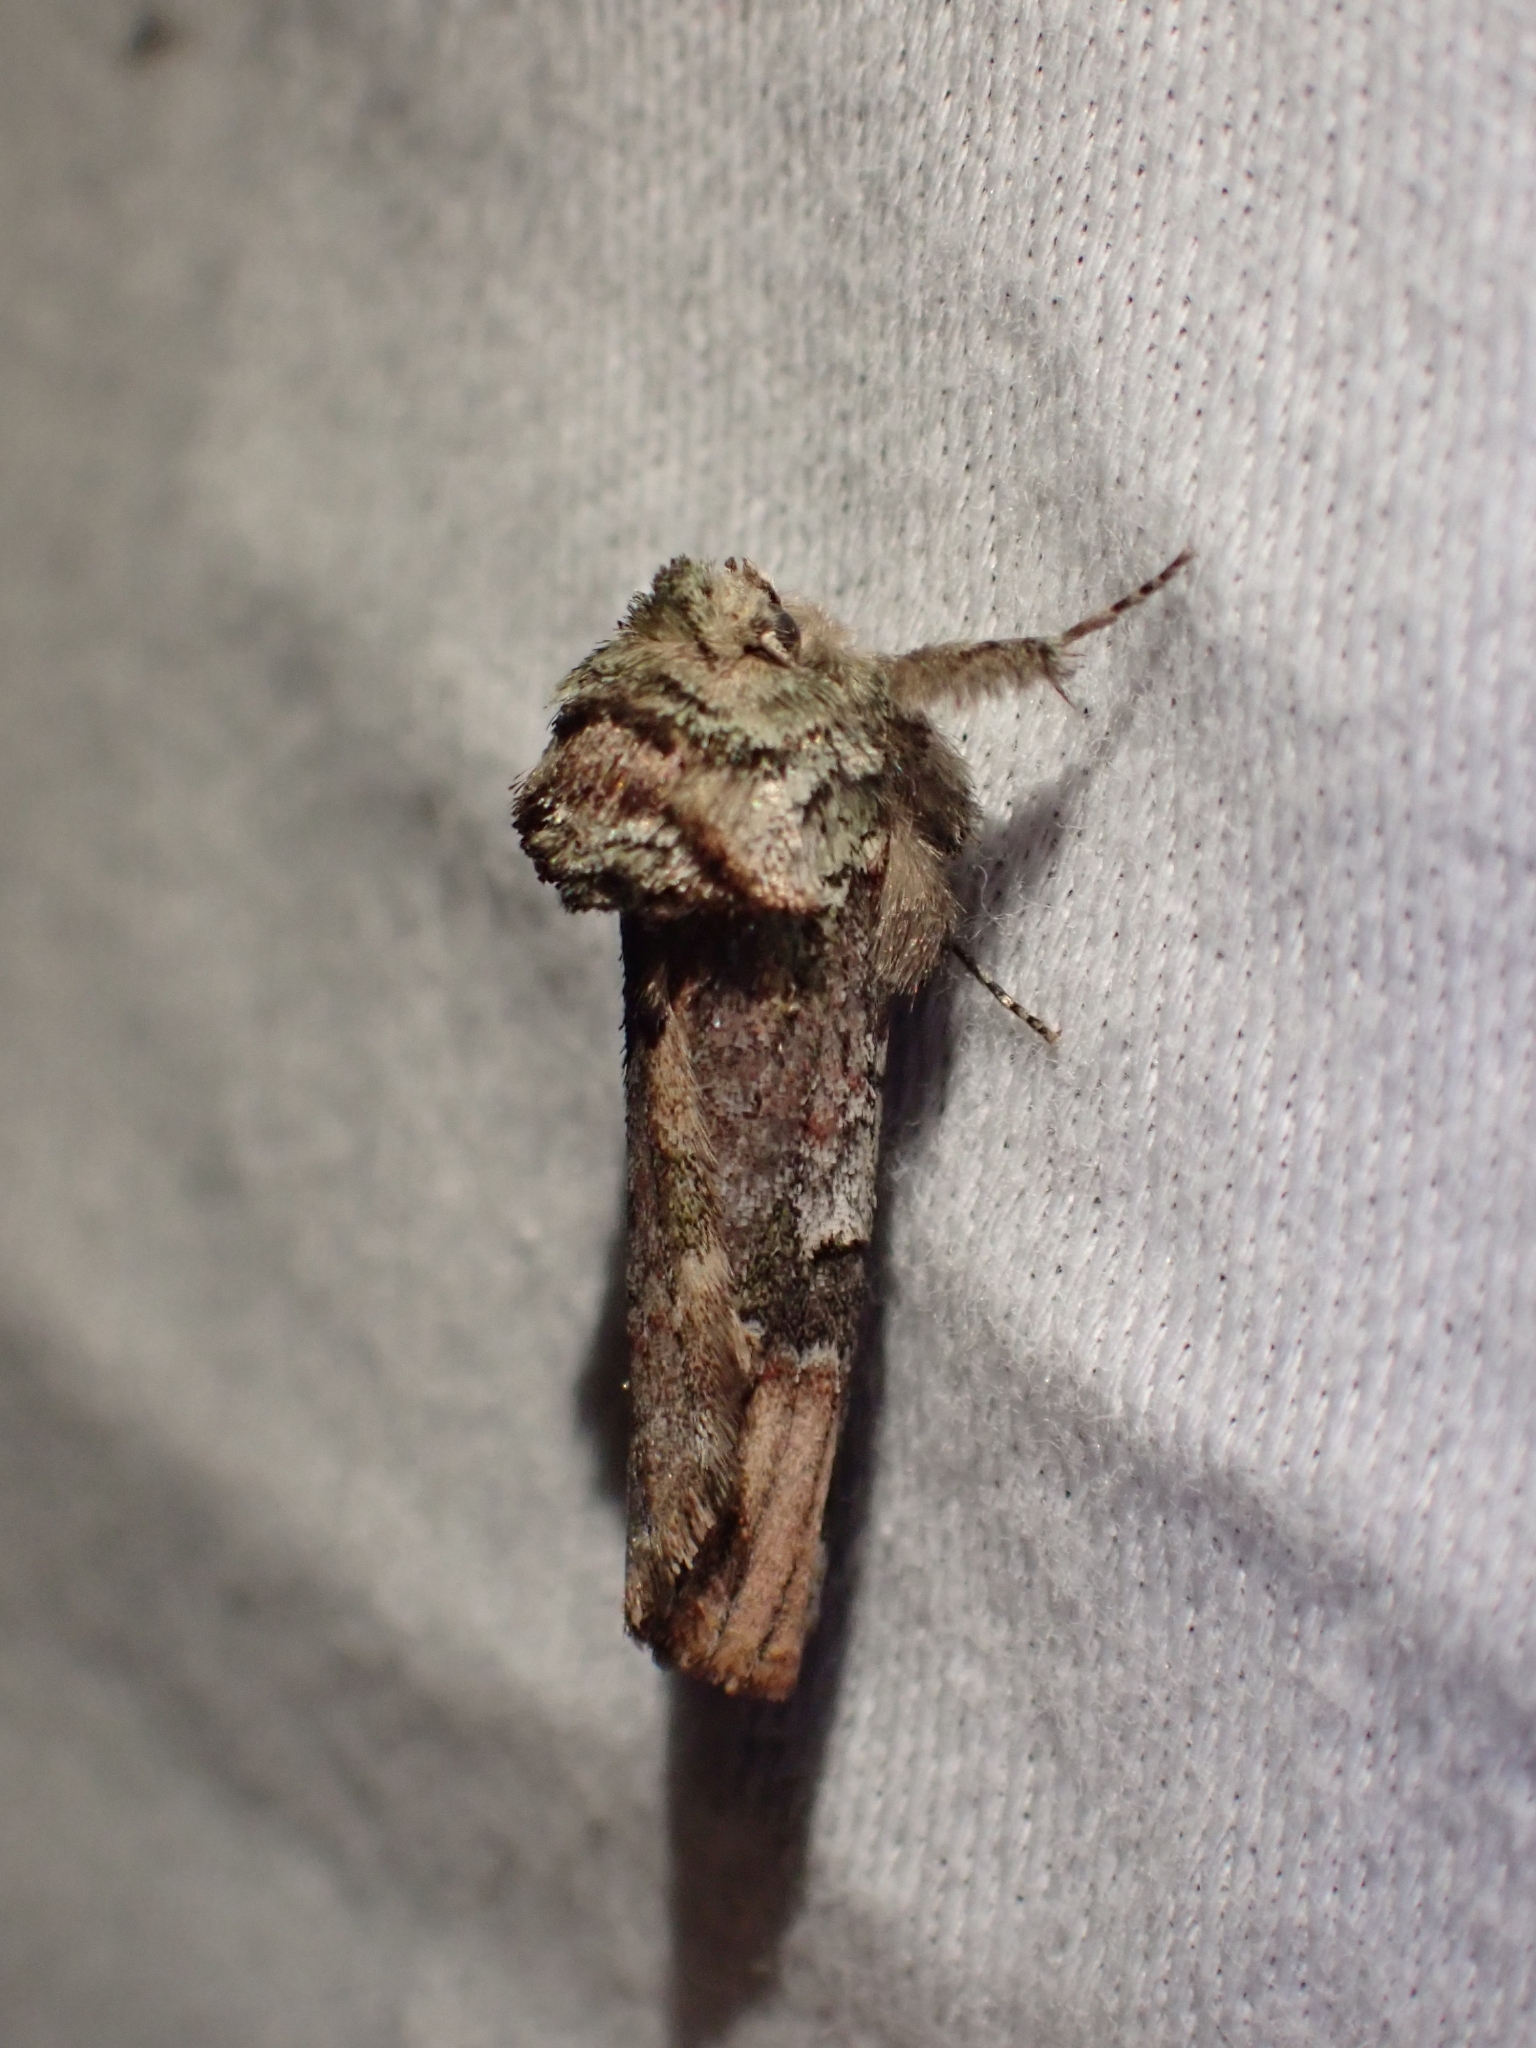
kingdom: Animalia
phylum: Arthropoda
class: Insecta
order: Lepidoptera
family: Notodontidae
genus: Schizura
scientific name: Schizura
